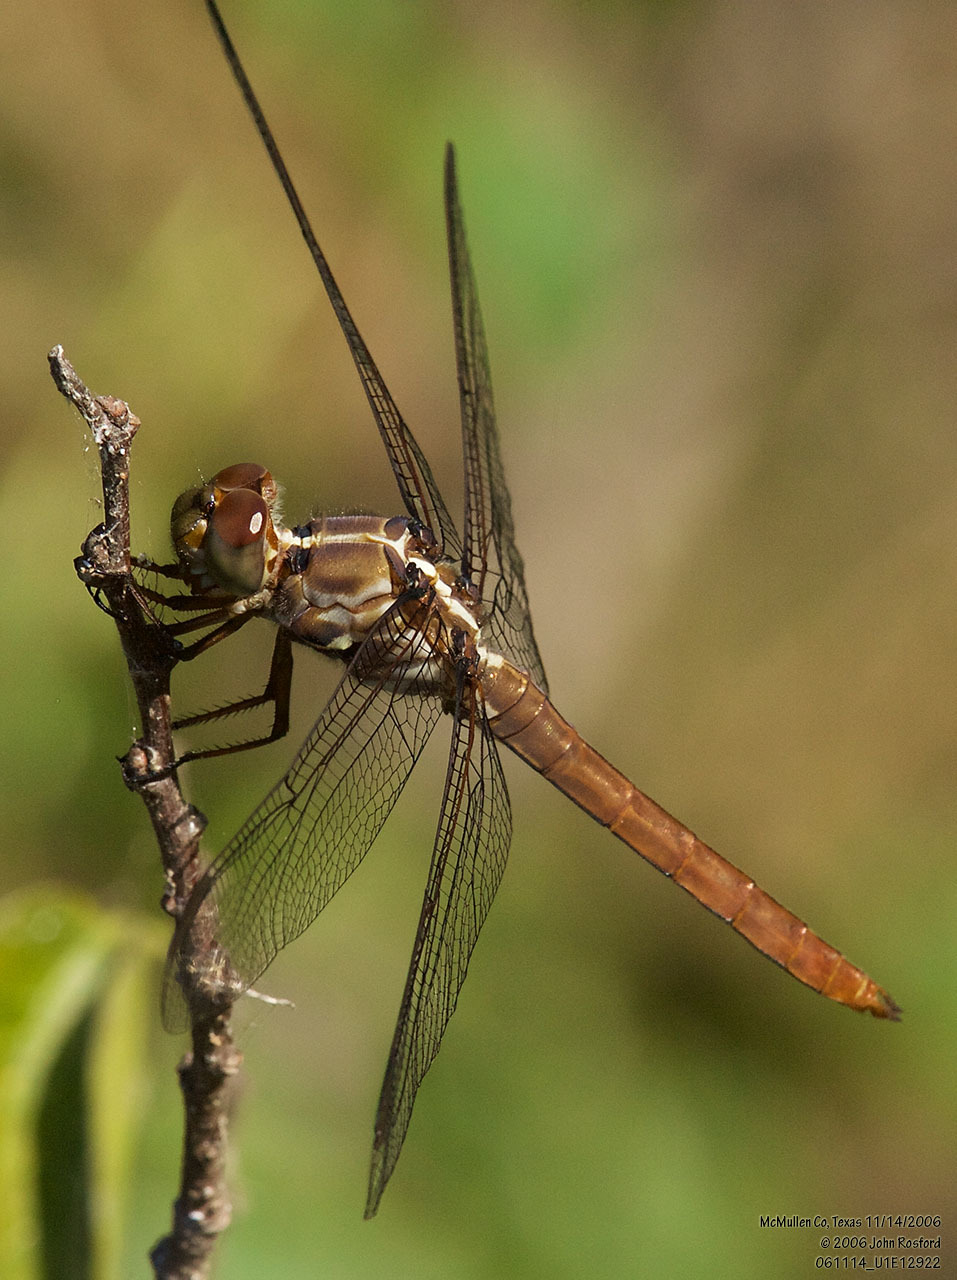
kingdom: Animalia
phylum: Arthropoda
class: Insecta
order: Odonata
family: Libellulidae
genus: Orthemis
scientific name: Orthemis ferruginea
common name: Roseate skimmer
